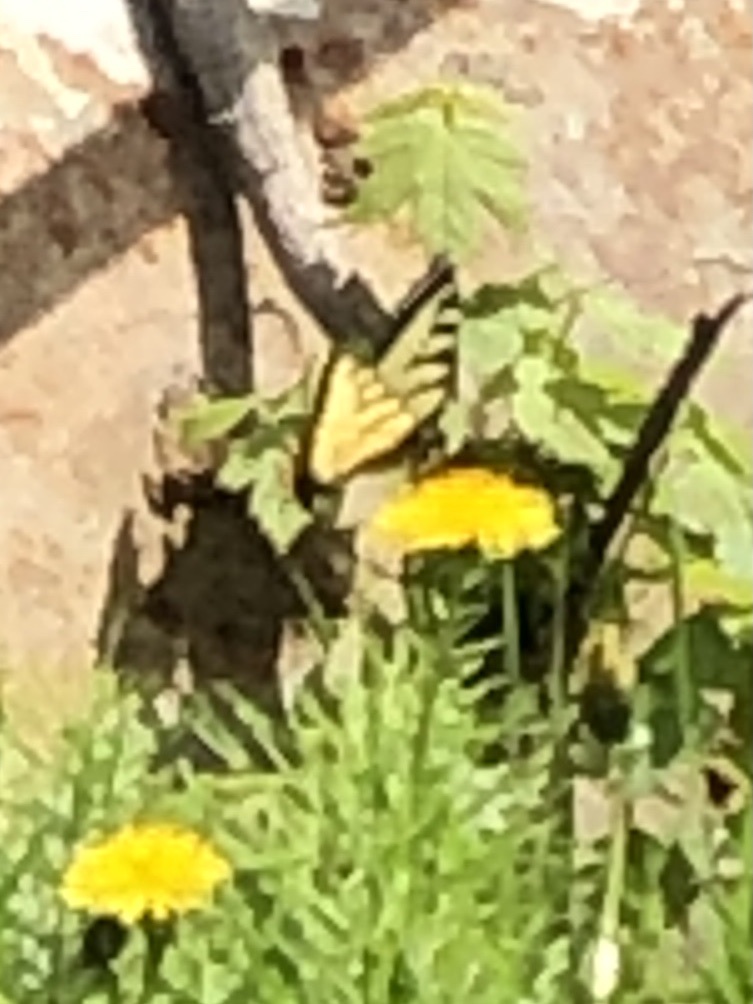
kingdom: Animalia
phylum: Arthropoda
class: Insecta
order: Lepidoptera
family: Papilionidae
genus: Papilio
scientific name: Papilio canadensis
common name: Canadian tiger swallowtail
